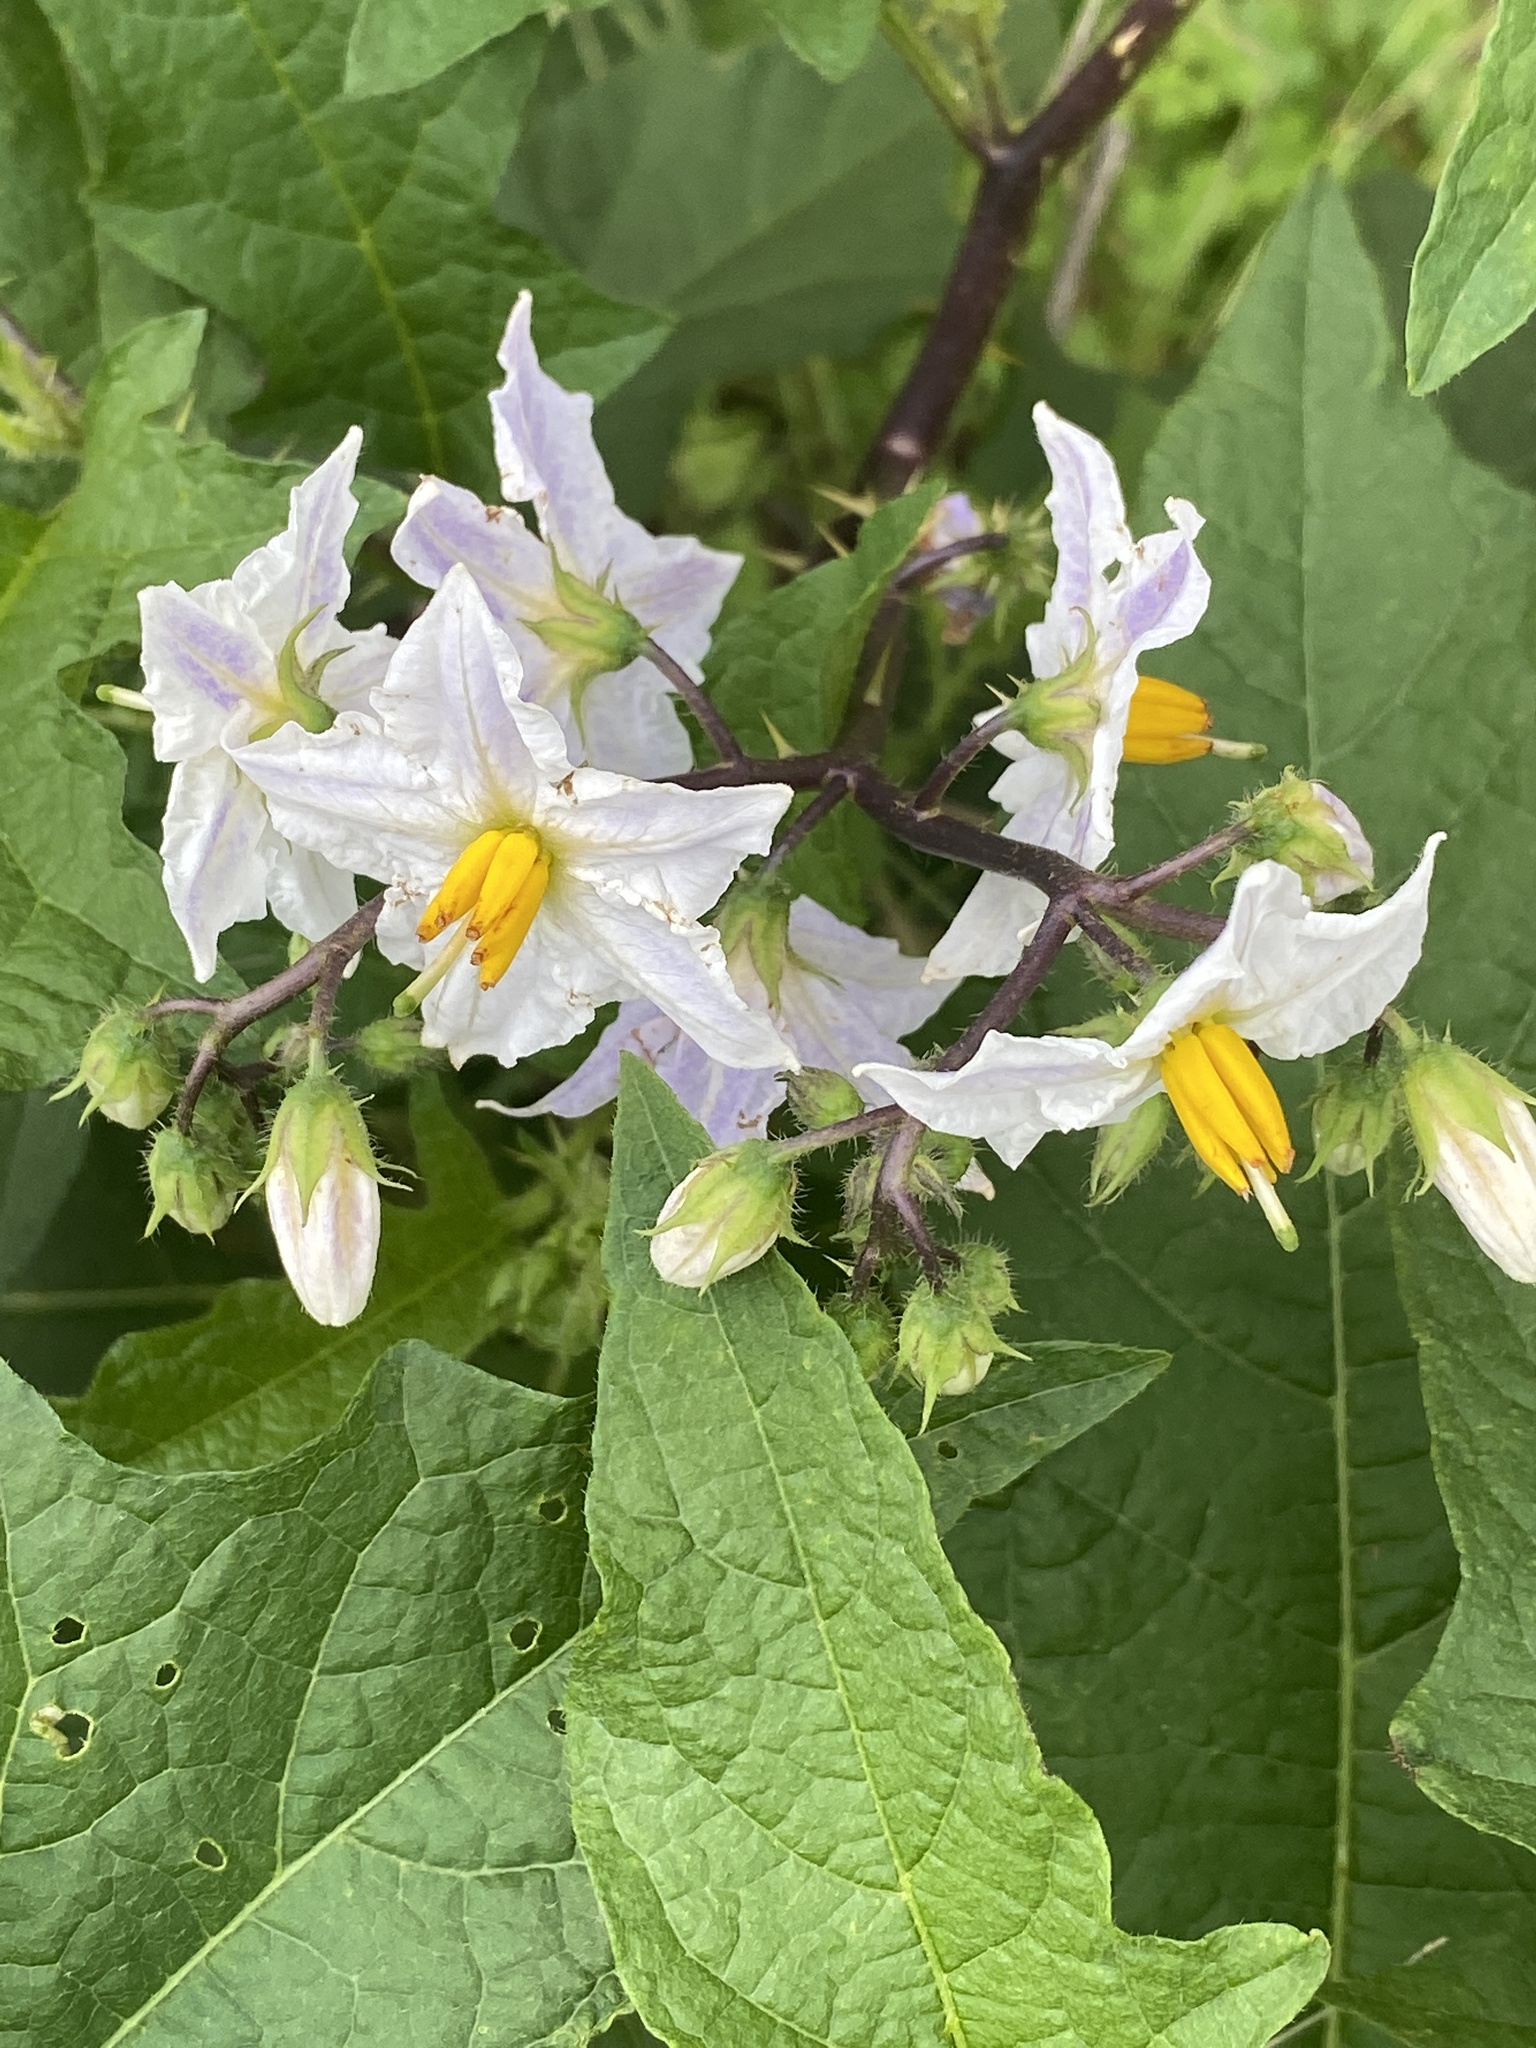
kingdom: Plantae
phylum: Tracheophyta
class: Magnoliopsida
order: Solanales
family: Solanaceae
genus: Solanum
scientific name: Solanum carolinense
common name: Horse-nettle
